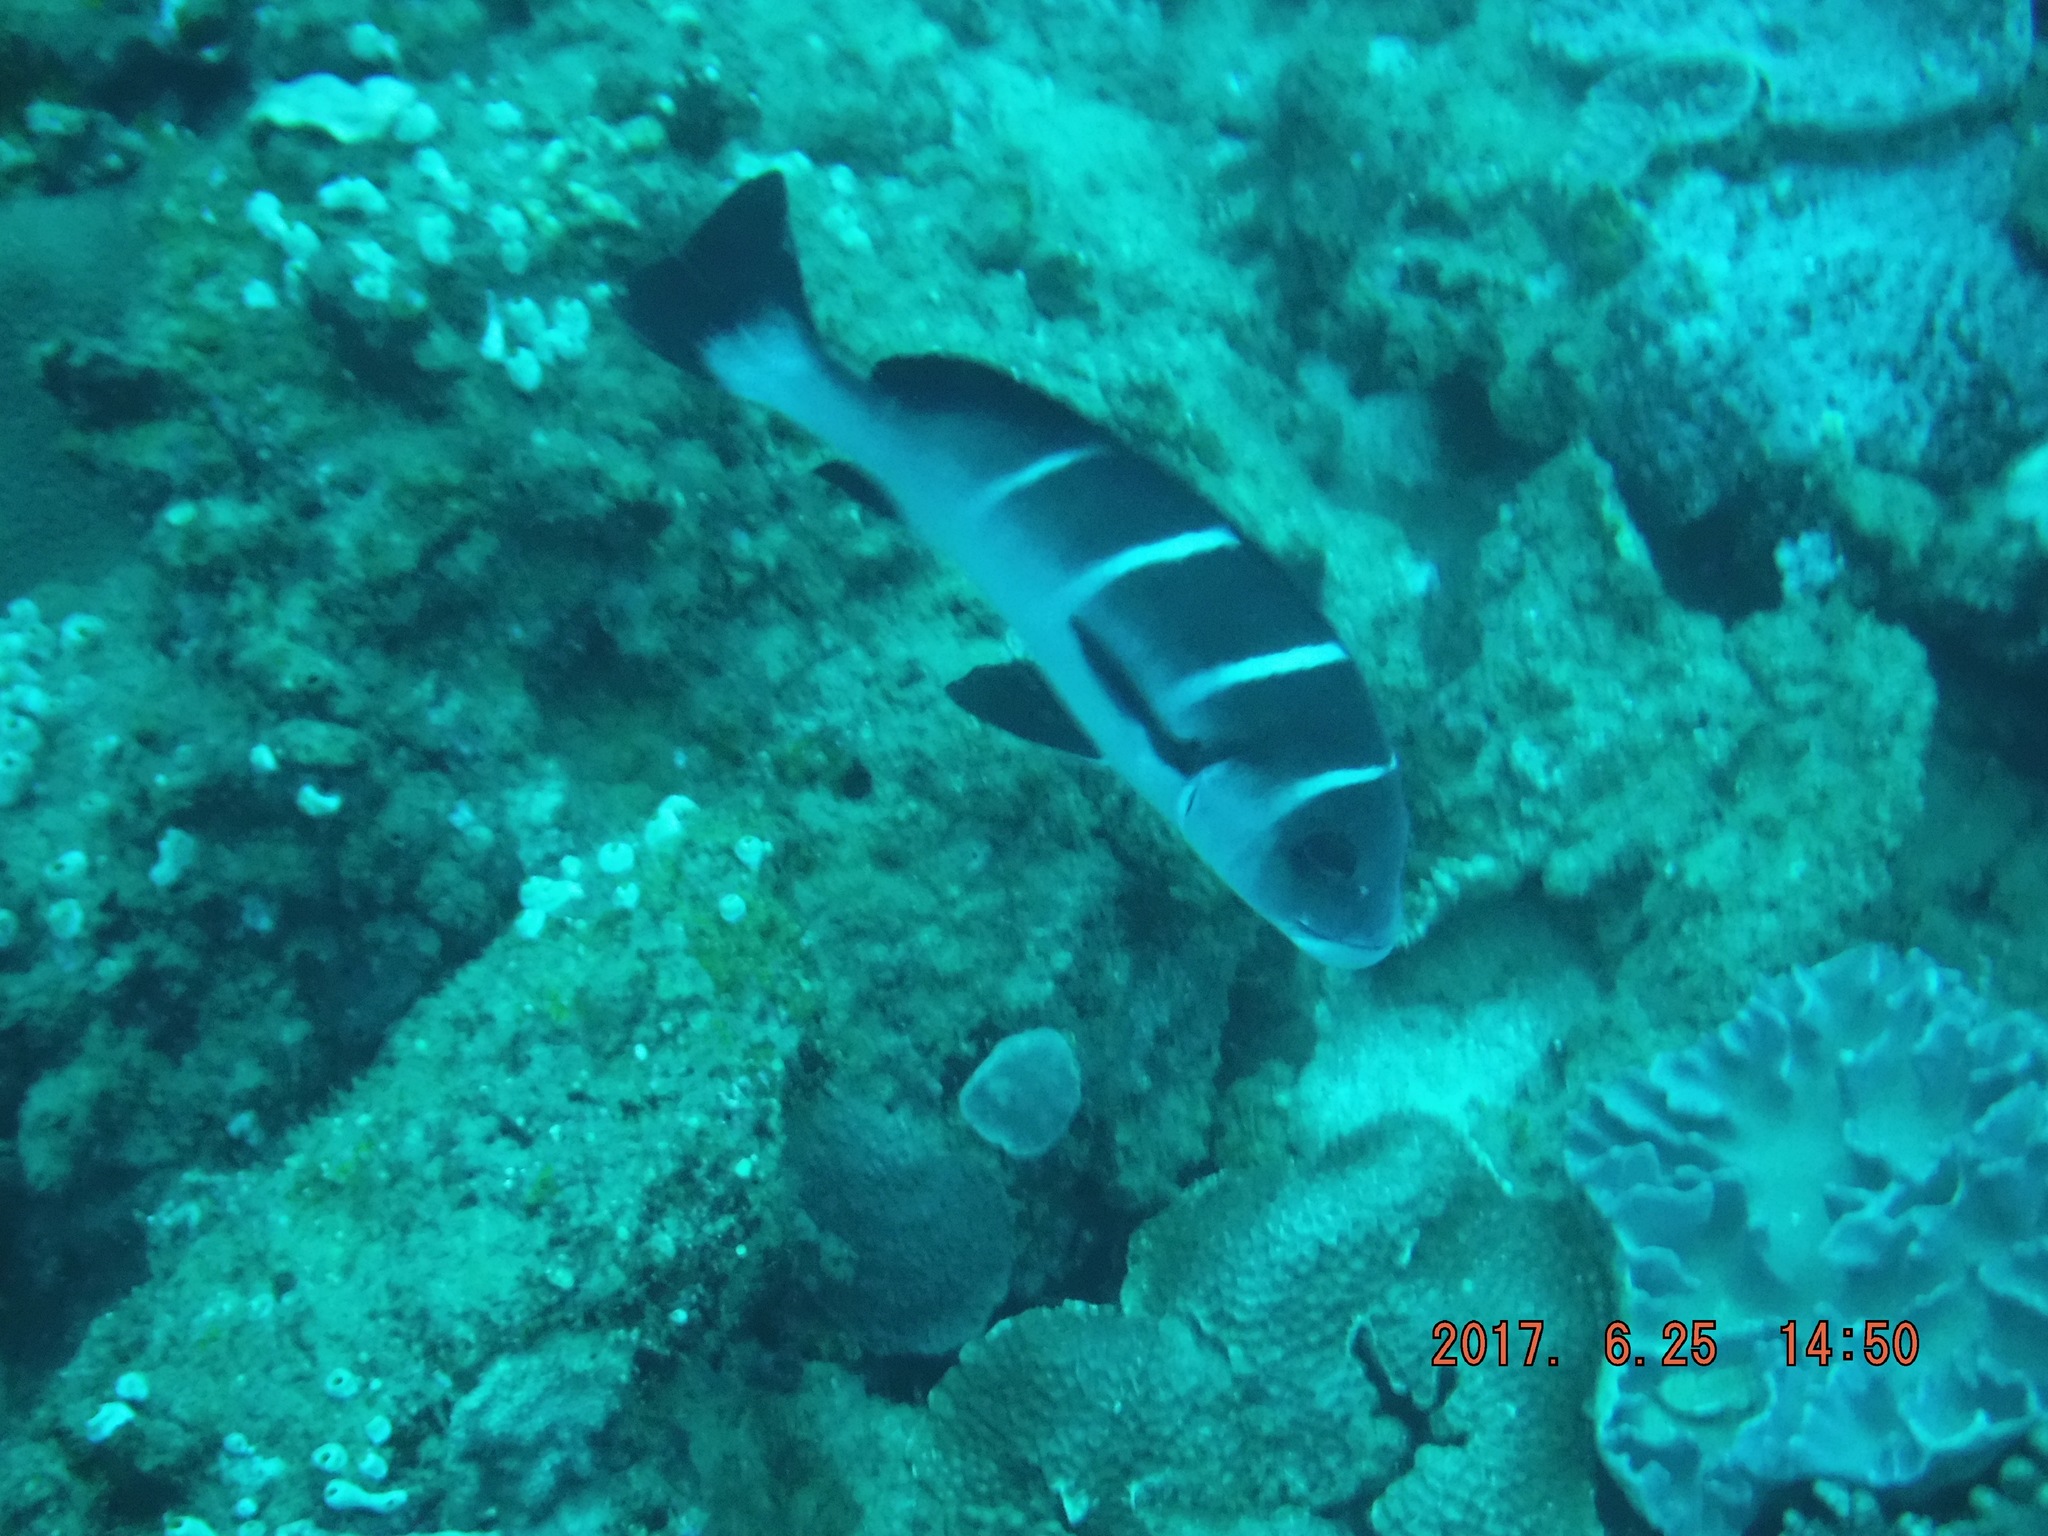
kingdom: Animalia
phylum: Chordata
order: Perciformes
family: Haemulidae
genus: Plectorhinchus
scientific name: Plectorhinchus playfairi
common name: Whitebarred rubberlip
